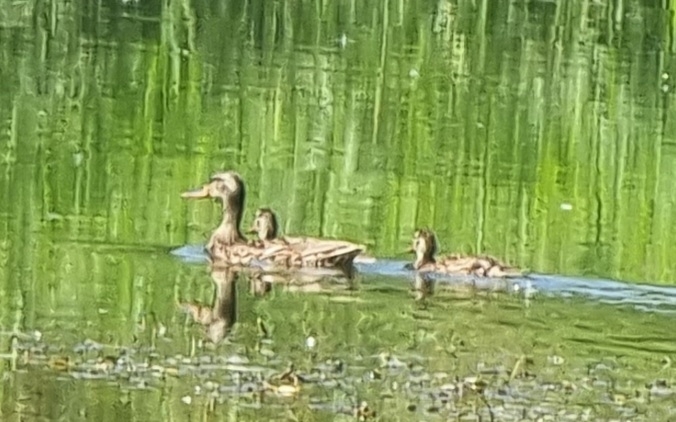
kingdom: Animalia
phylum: Chordata
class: Aves
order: Anseriformes
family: Anatidae
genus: Anas
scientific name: Anas platyrhynchos
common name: Mallard
